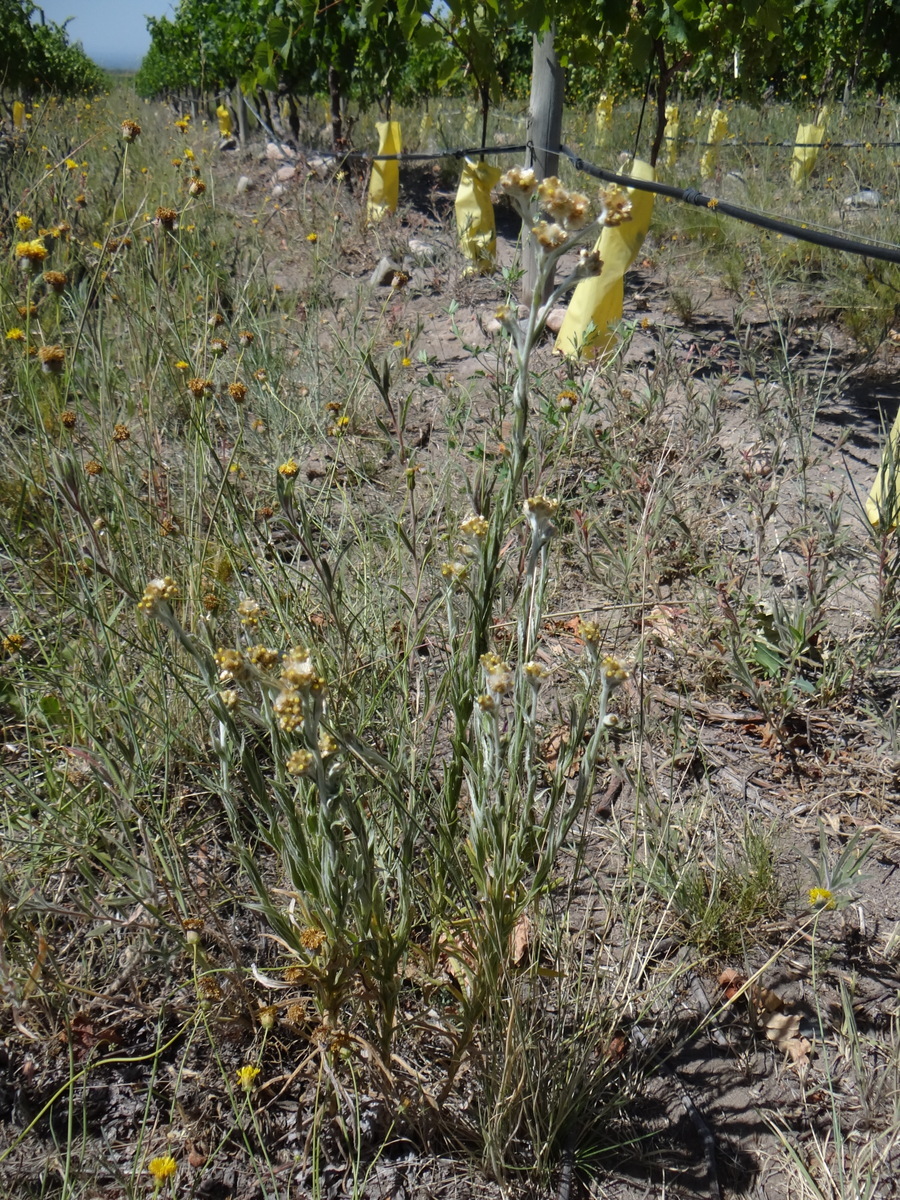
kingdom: Plantae
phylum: Tracheophyta
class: Magnoliopsida
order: Asterales
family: Asteraceae
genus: Pseudognaphalium
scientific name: Pseudognaphalium gaudichaudianum
